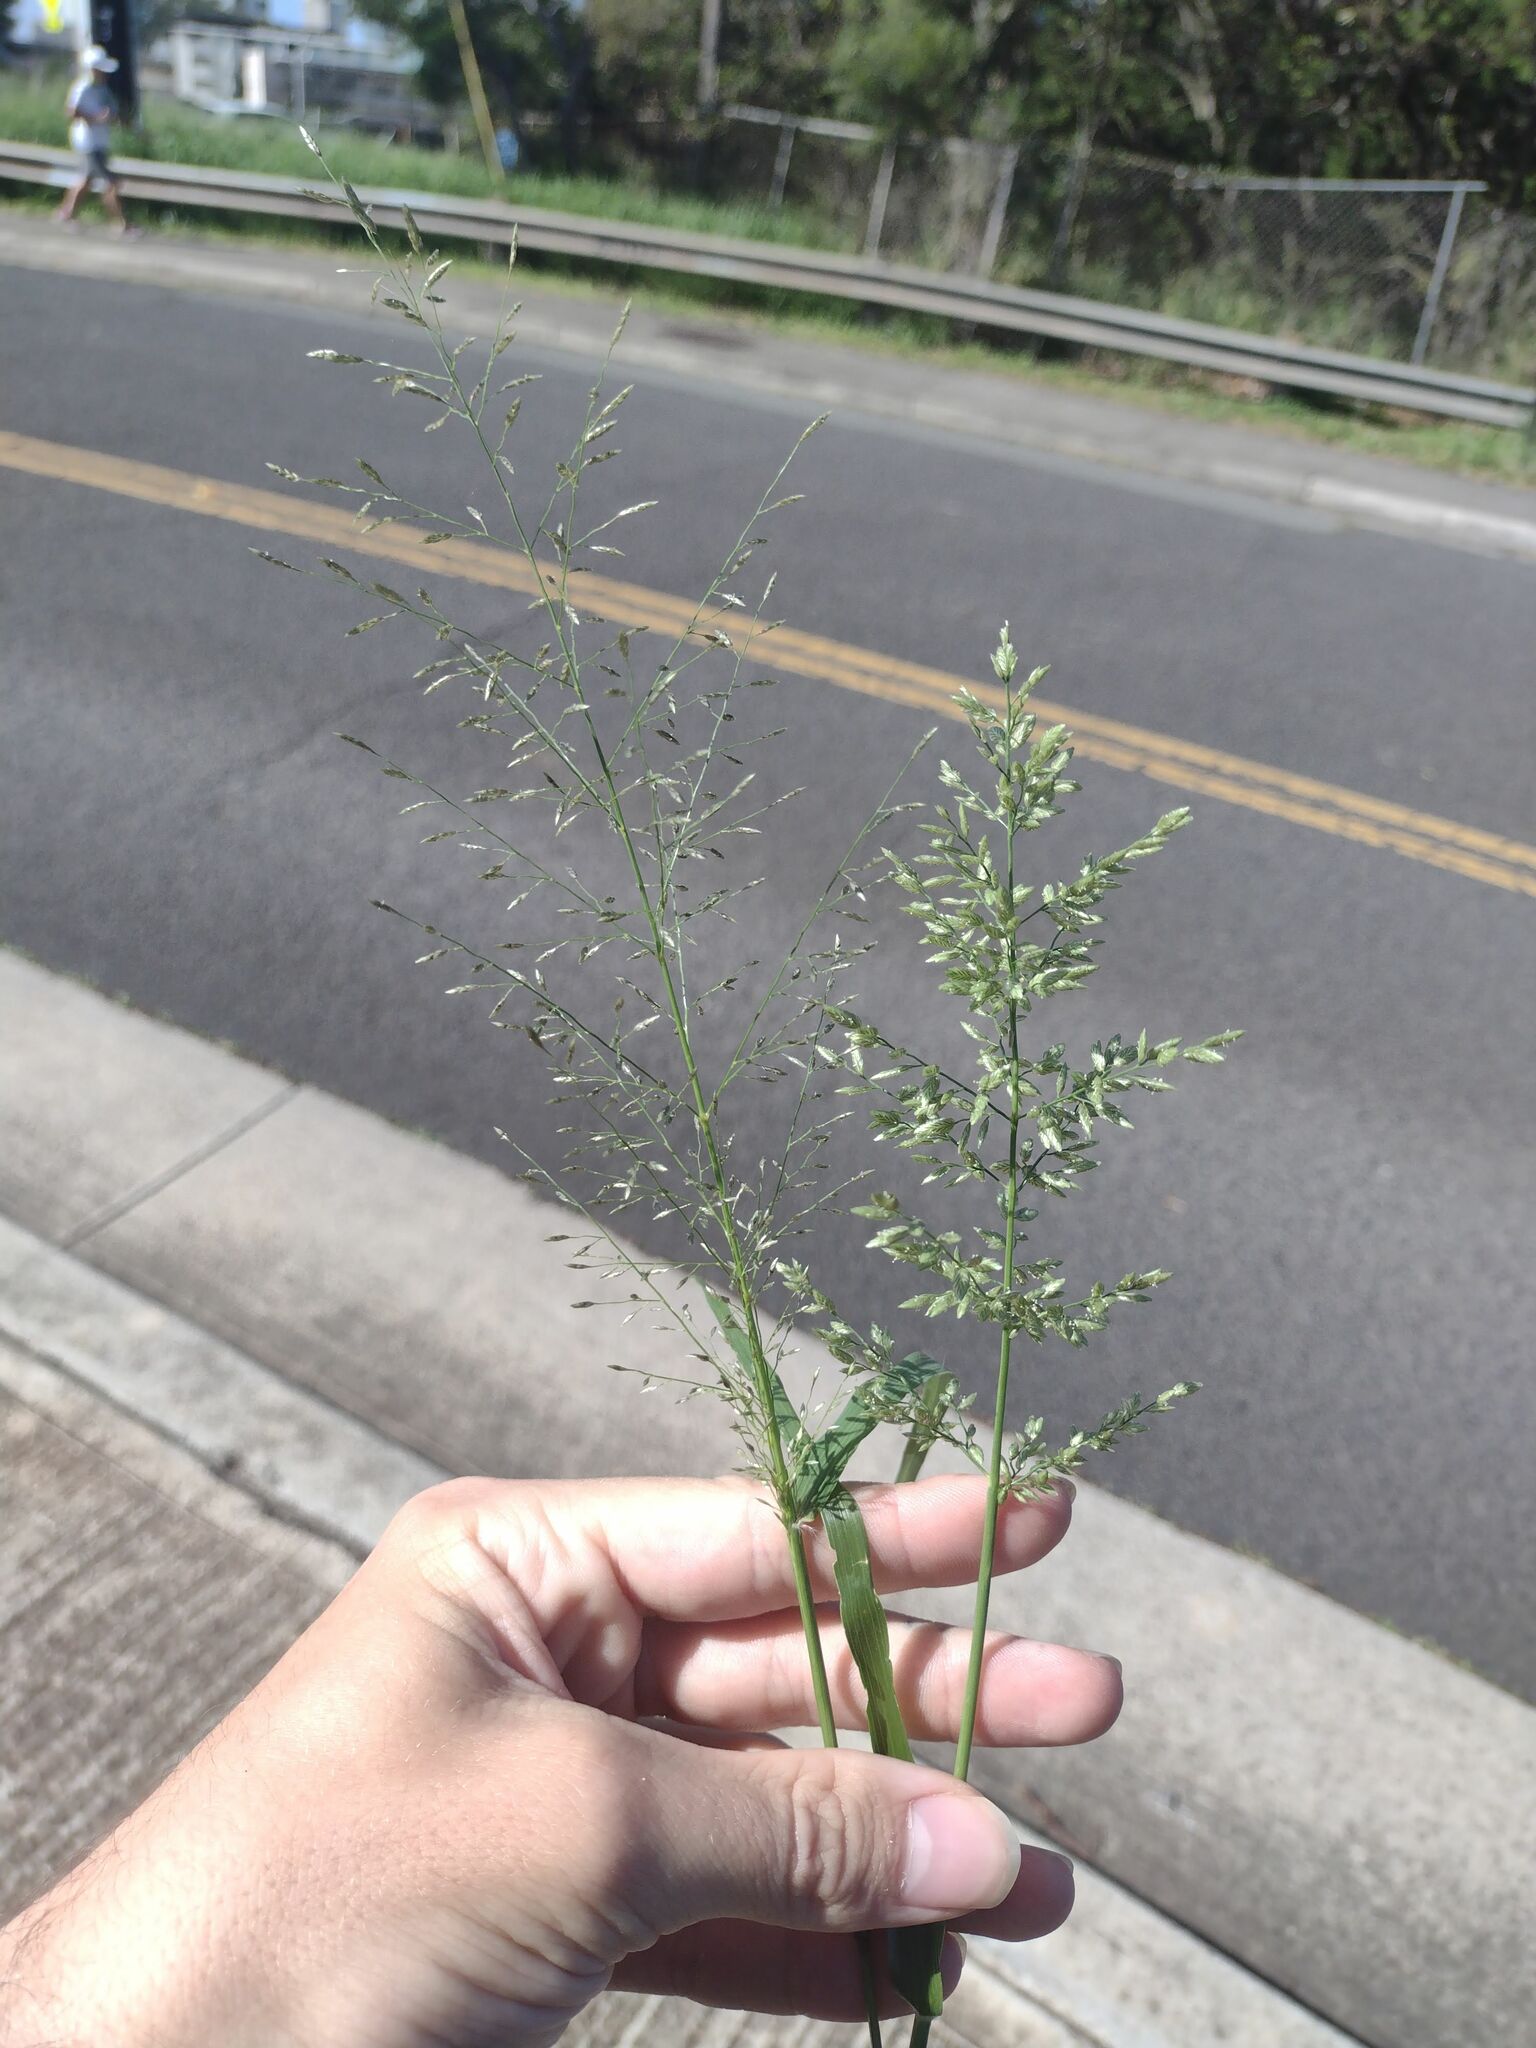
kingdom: Plantae
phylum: Tracheophyta
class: Liliopsida
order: Poales
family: Poaceae
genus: Eragrostis
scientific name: Eragrostis
